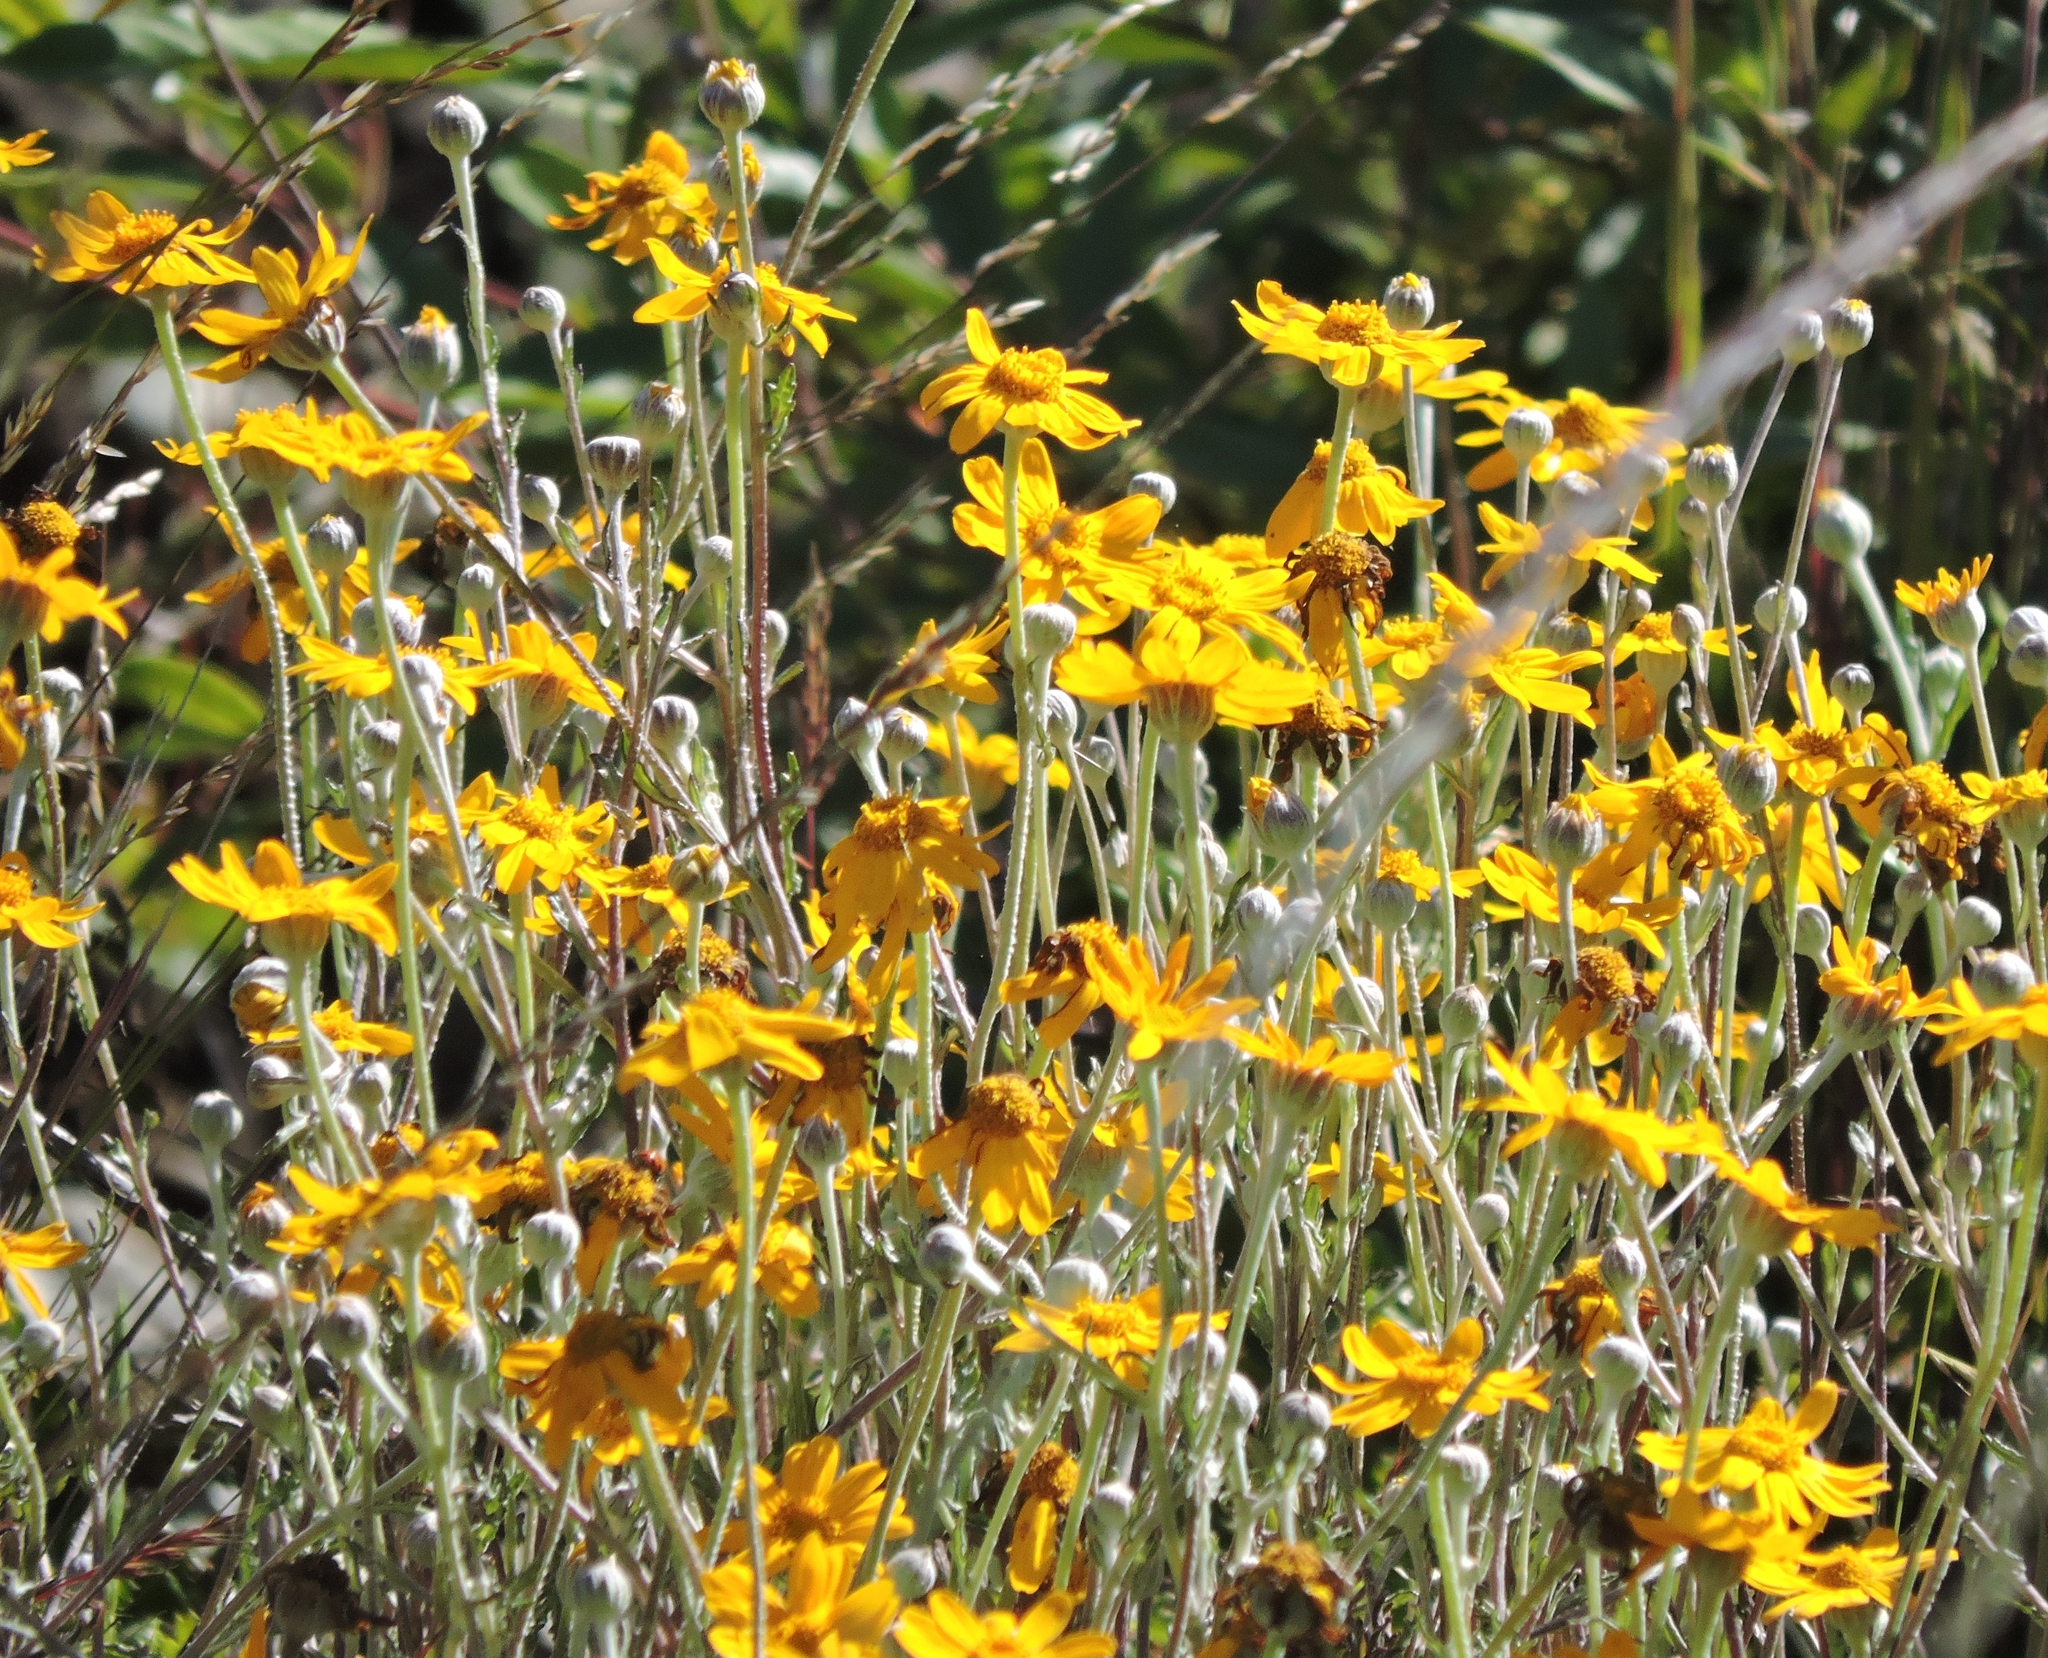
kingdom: Plantae
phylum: Tracheophyta
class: Magnoliopsida
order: Asterales
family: Asteraceae
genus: Eriophyllum
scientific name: Eriophyllum lanatum
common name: Common woolly-sunflower
